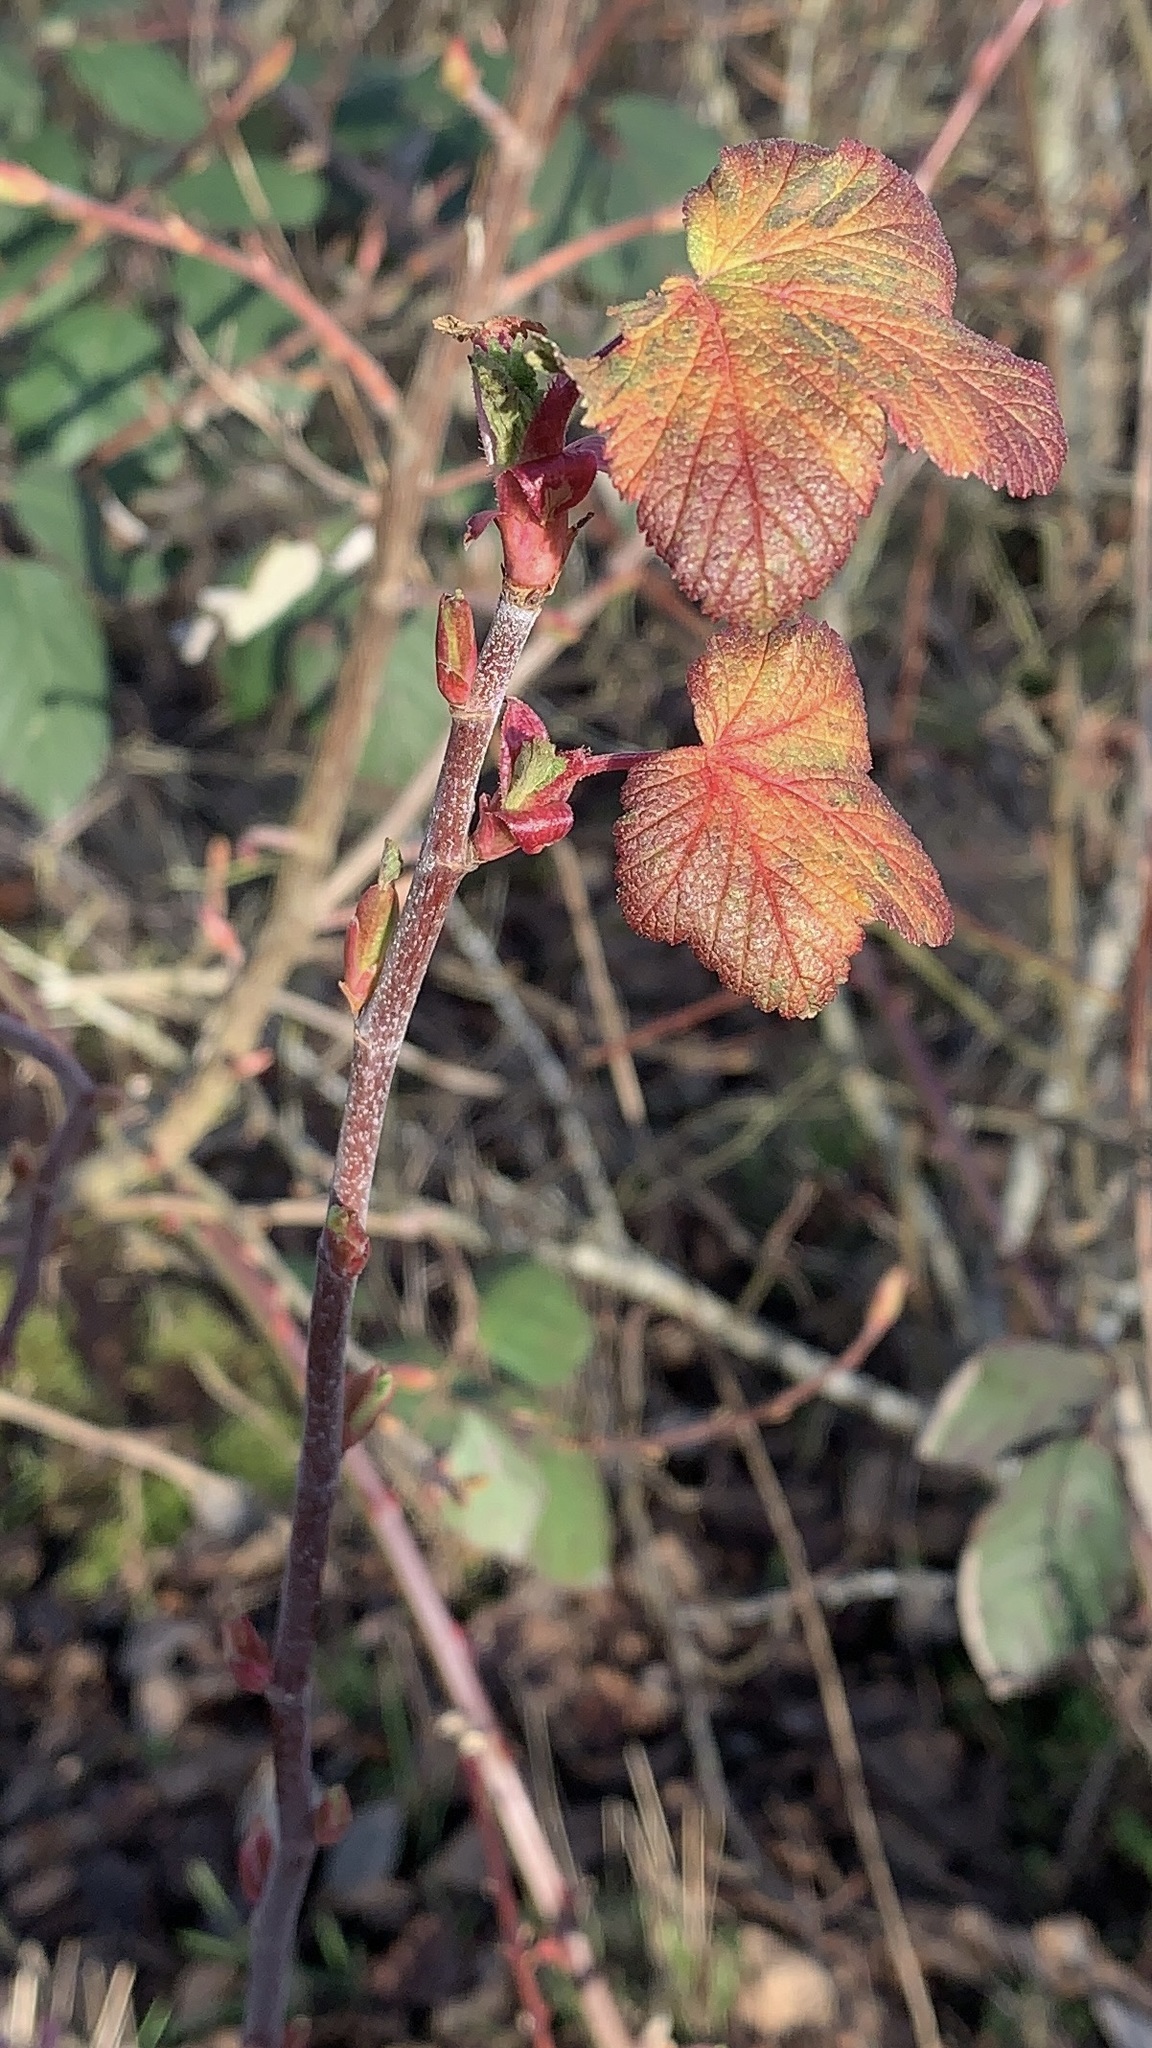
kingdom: Plantae
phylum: Tracheophyta
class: Magnoliopsida
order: Saxifragales
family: Grossulariaceae
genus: Ribes
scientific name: Ribes sanguineum
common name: Flowering currant
